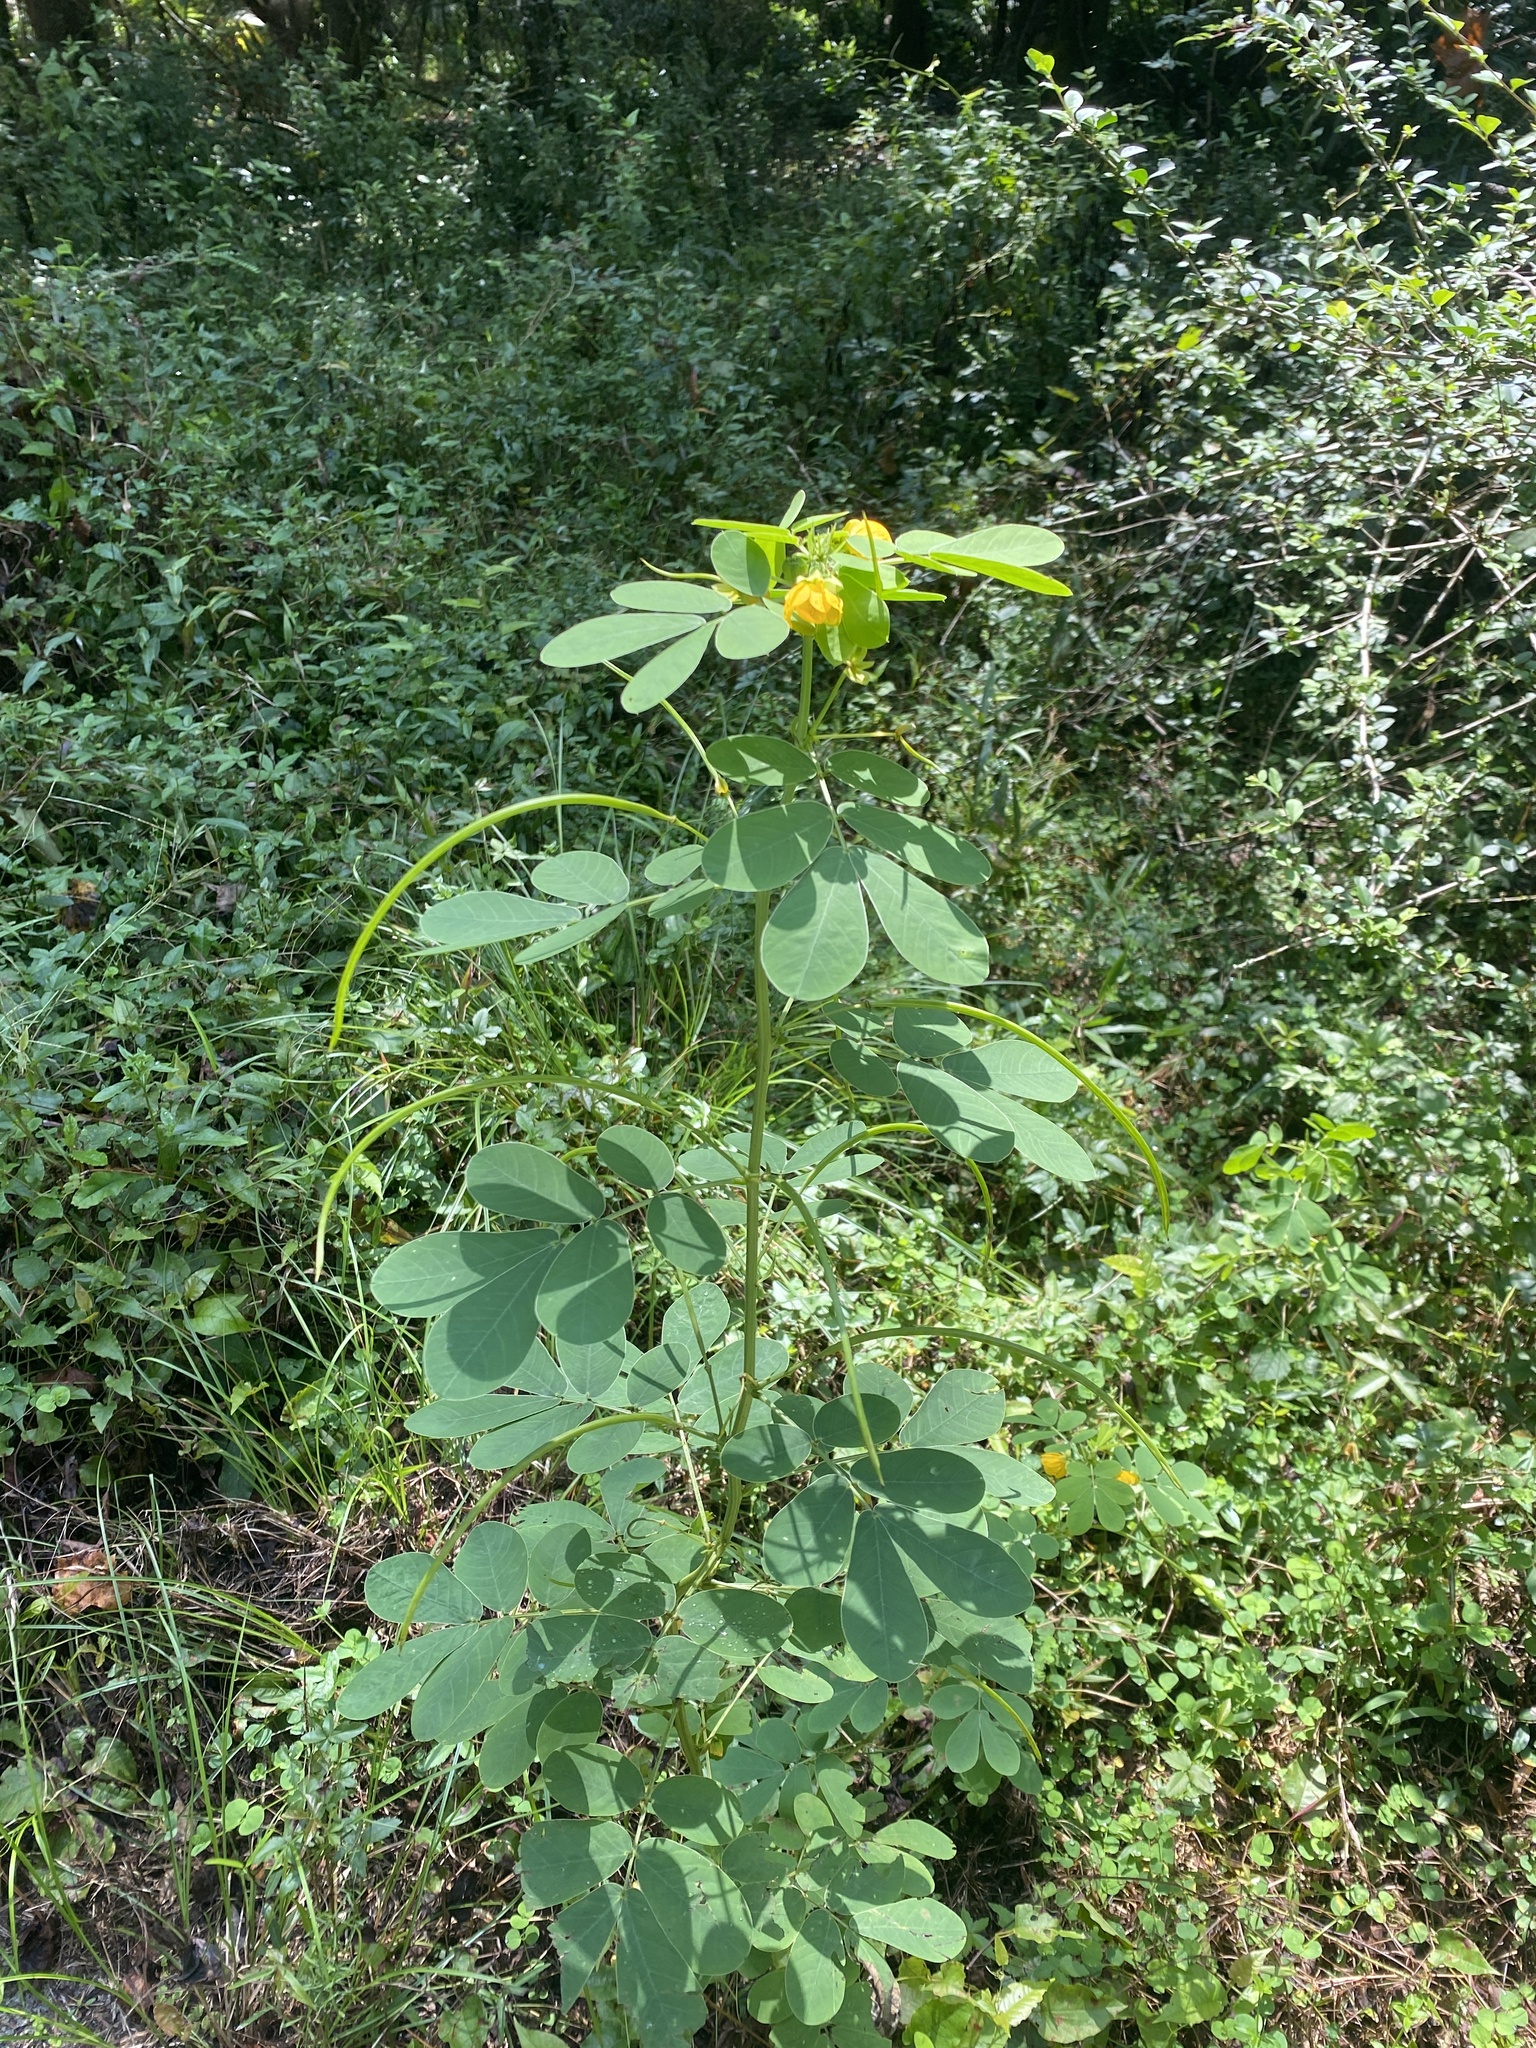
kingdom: Plantae
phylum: Tracheophyta
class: Magnoliopsida
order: Fabales
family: Fabaceae
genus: Senna
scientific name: Senna obtusifolia
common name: Java-bean
